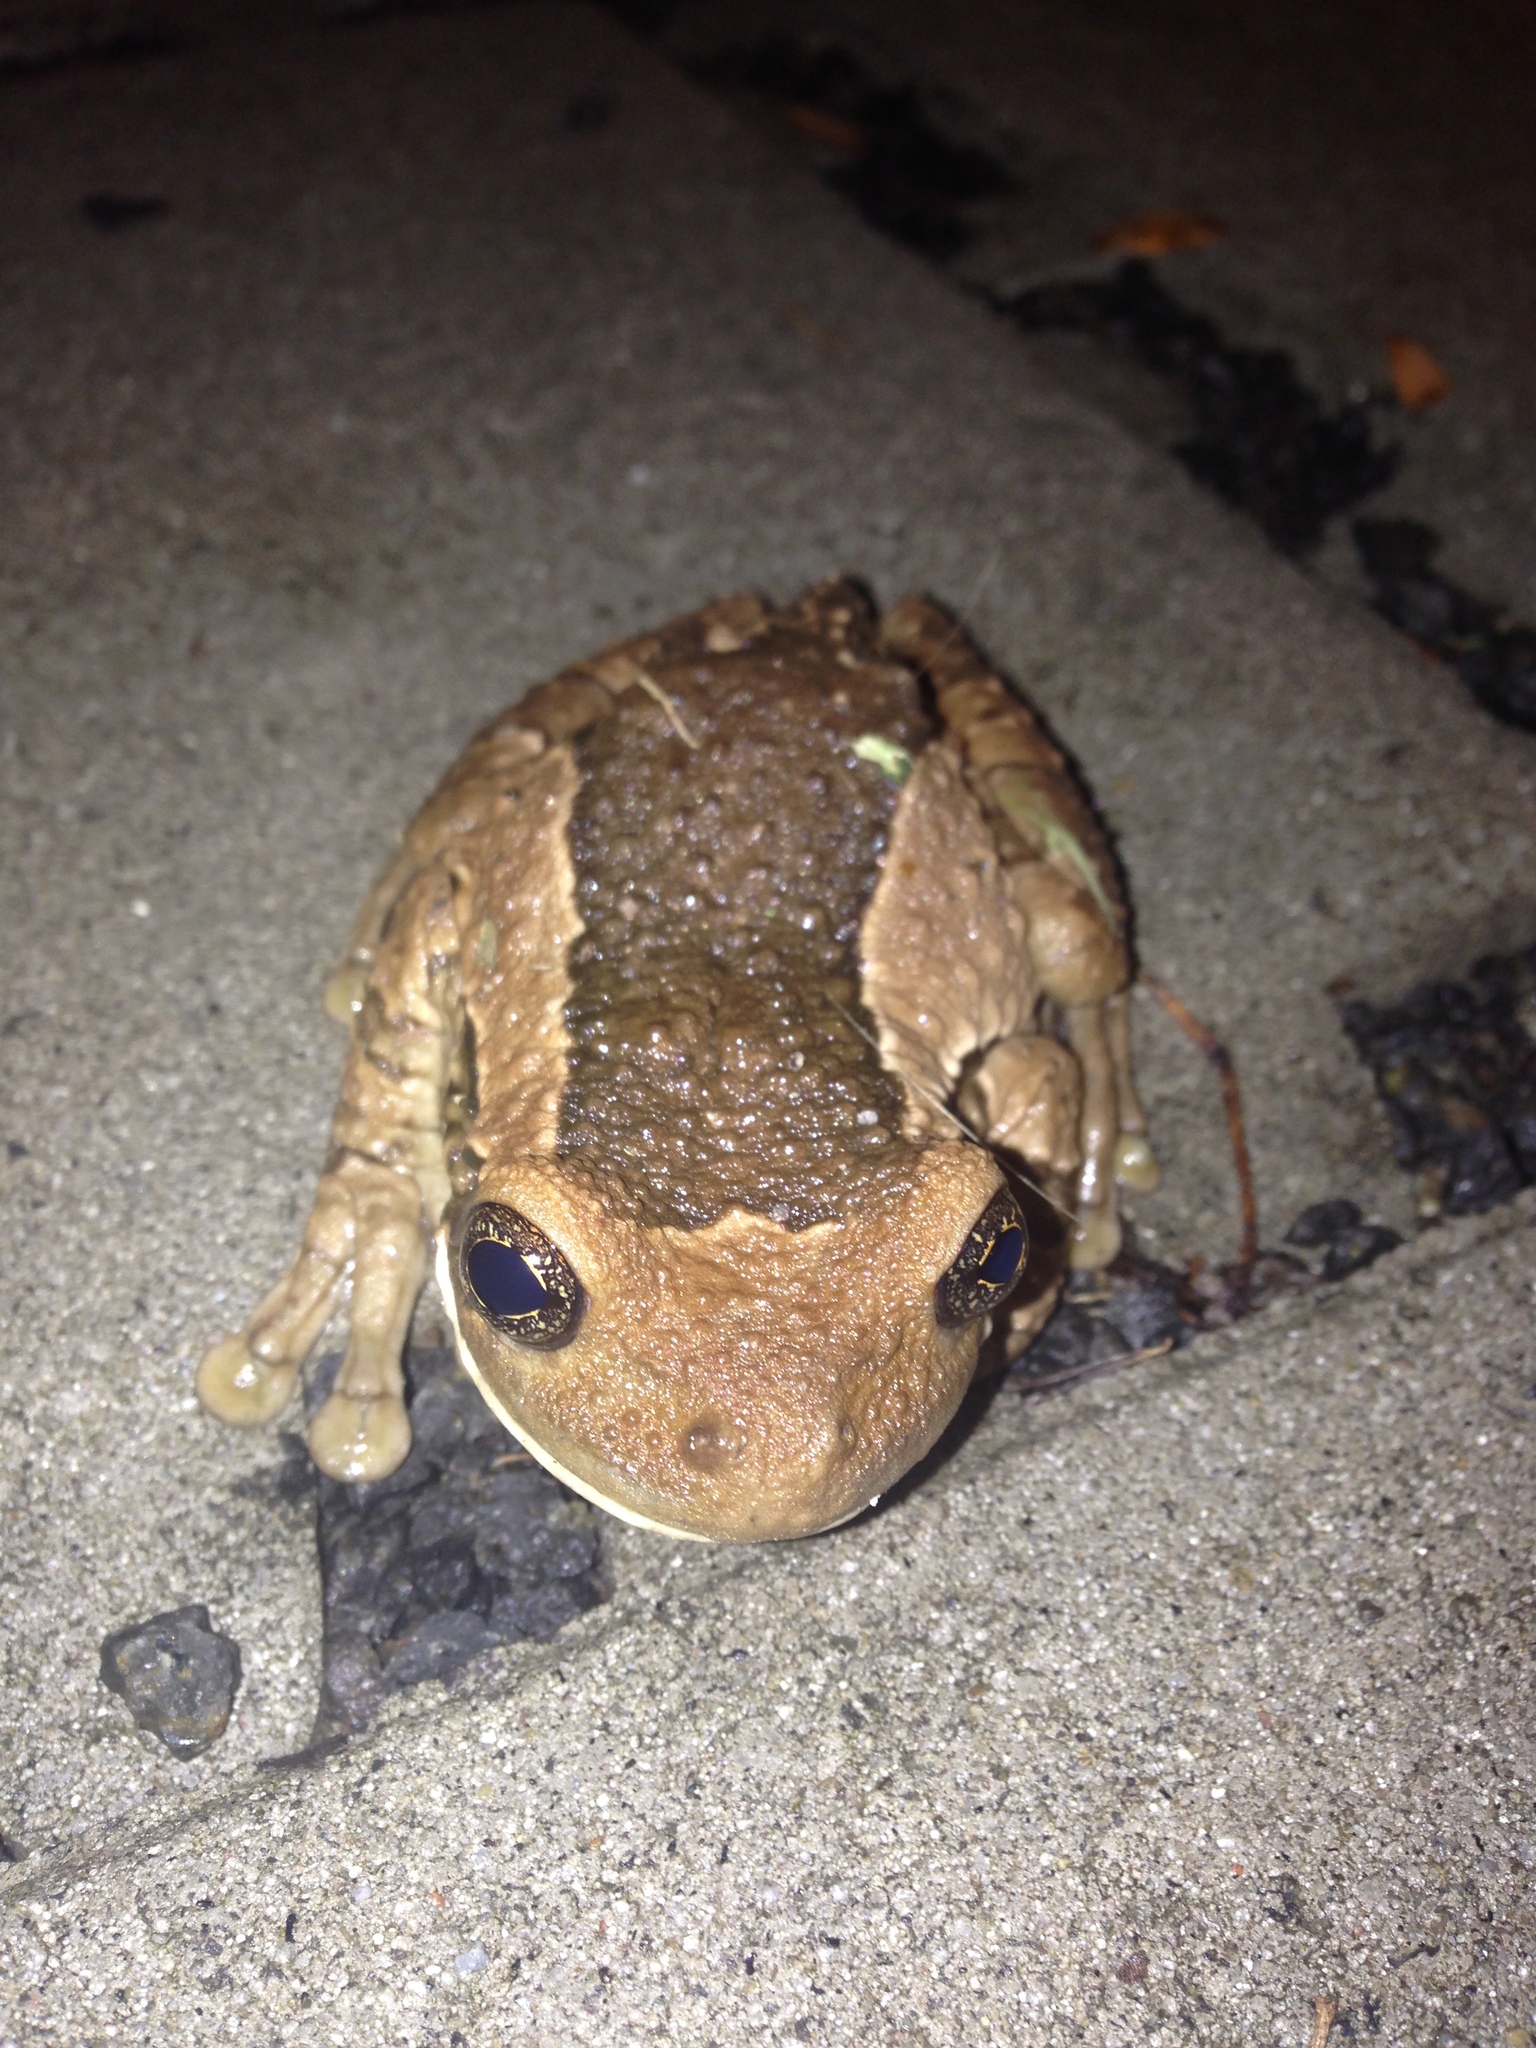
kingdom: Animalia
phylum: Chordata
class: Amphibia
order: Anura
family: Hylidae
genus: Trachycephalus
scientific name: Trachycephalus vermiculatus
